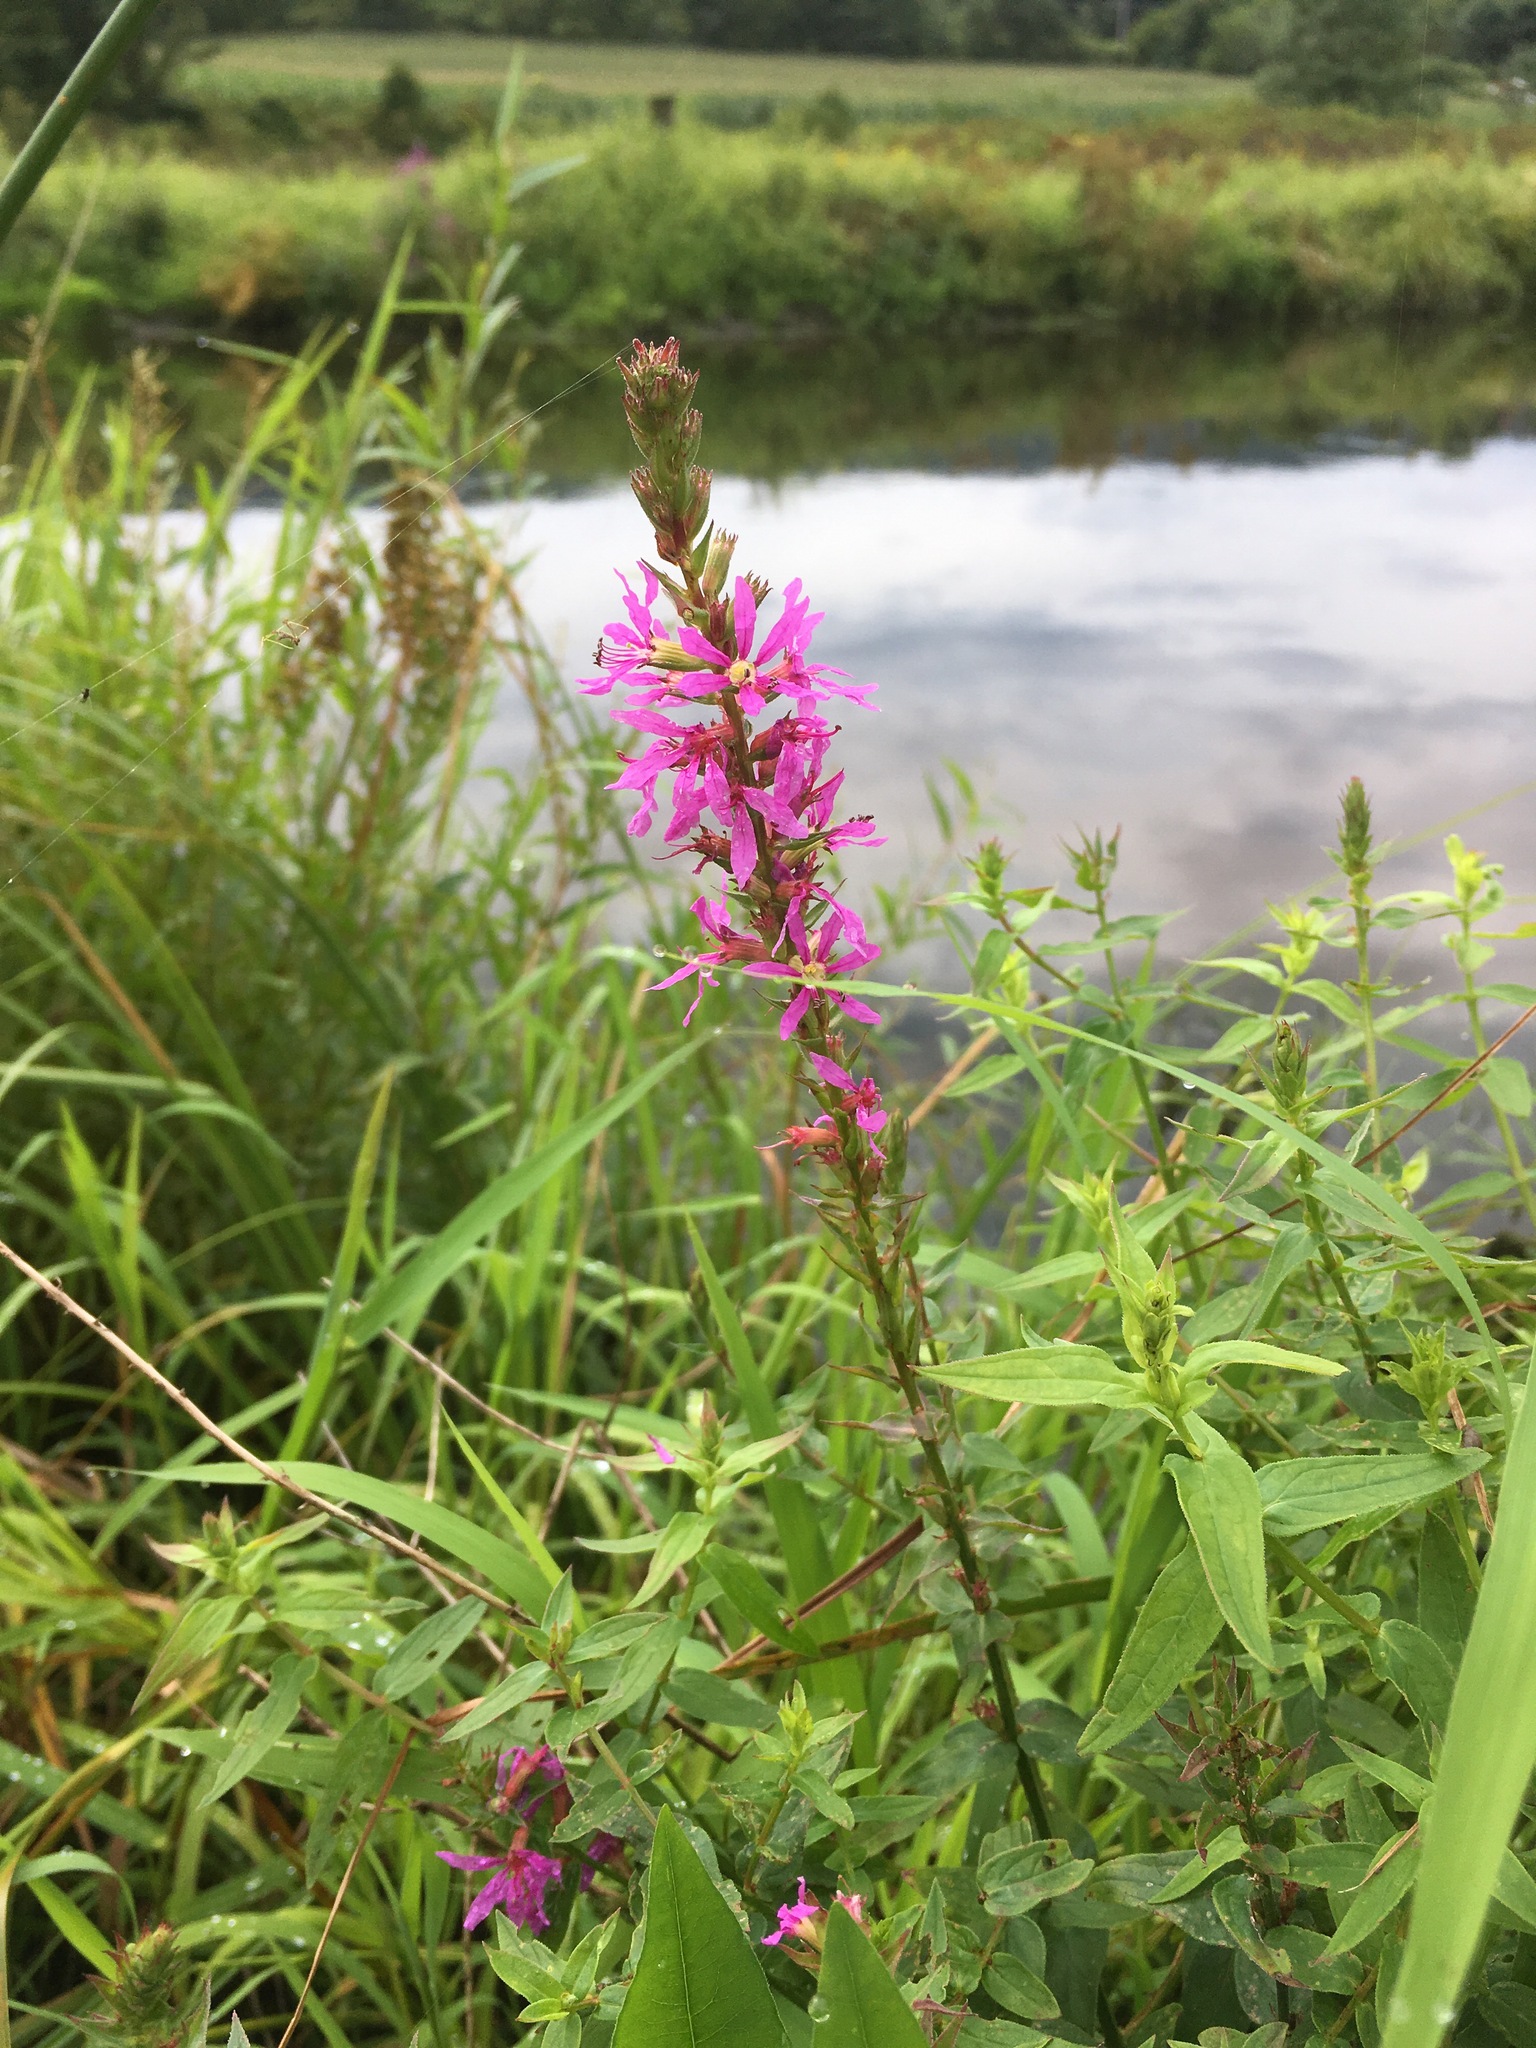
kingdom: Plantae
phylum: Tracheophyta
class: Magnoliopsida
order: Myrtales
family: Lythraceae
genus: Lythrum
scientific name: Lythrum salicaria
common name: Purple loosestrife
